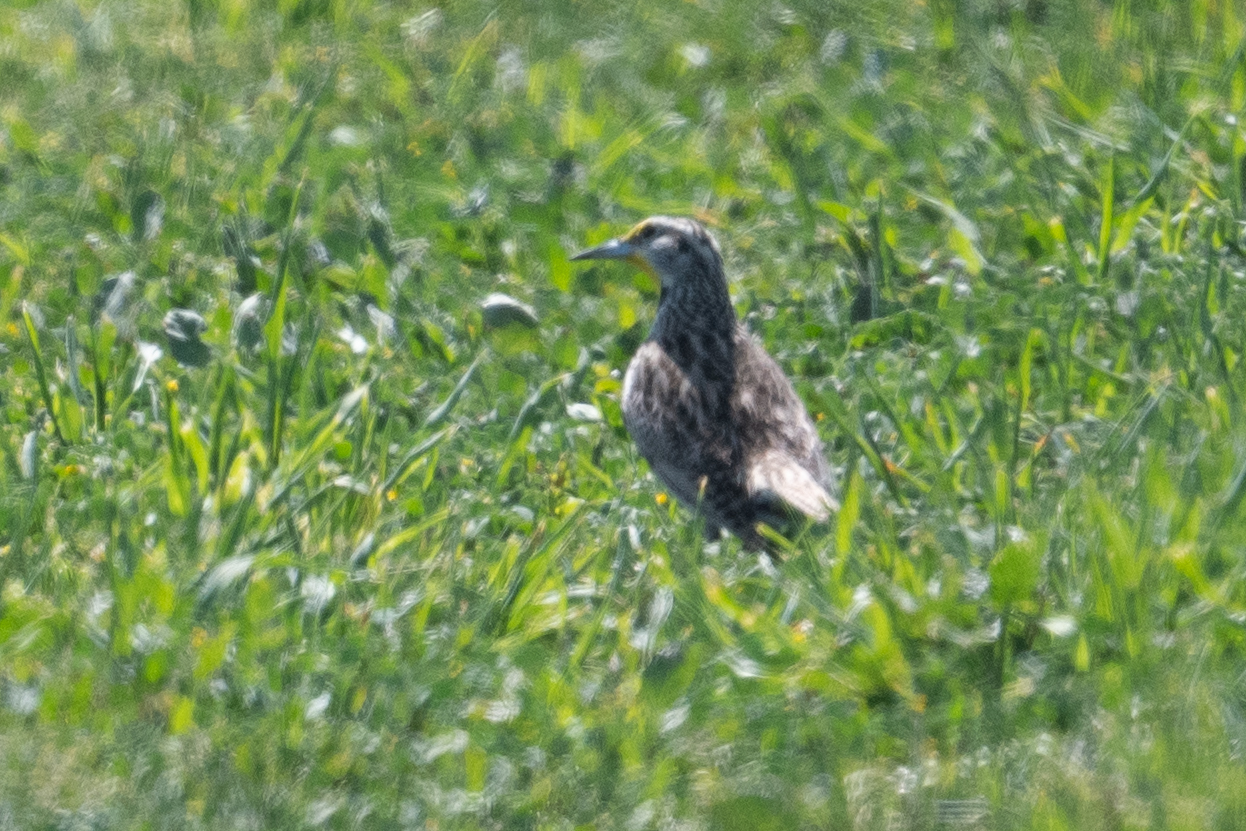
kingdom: Animalia
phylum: Chordata
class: Aves
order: Passeriformes
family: Icteridae
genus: Sturnella
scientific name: Sturnella neglecta
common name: Western meadowlark
